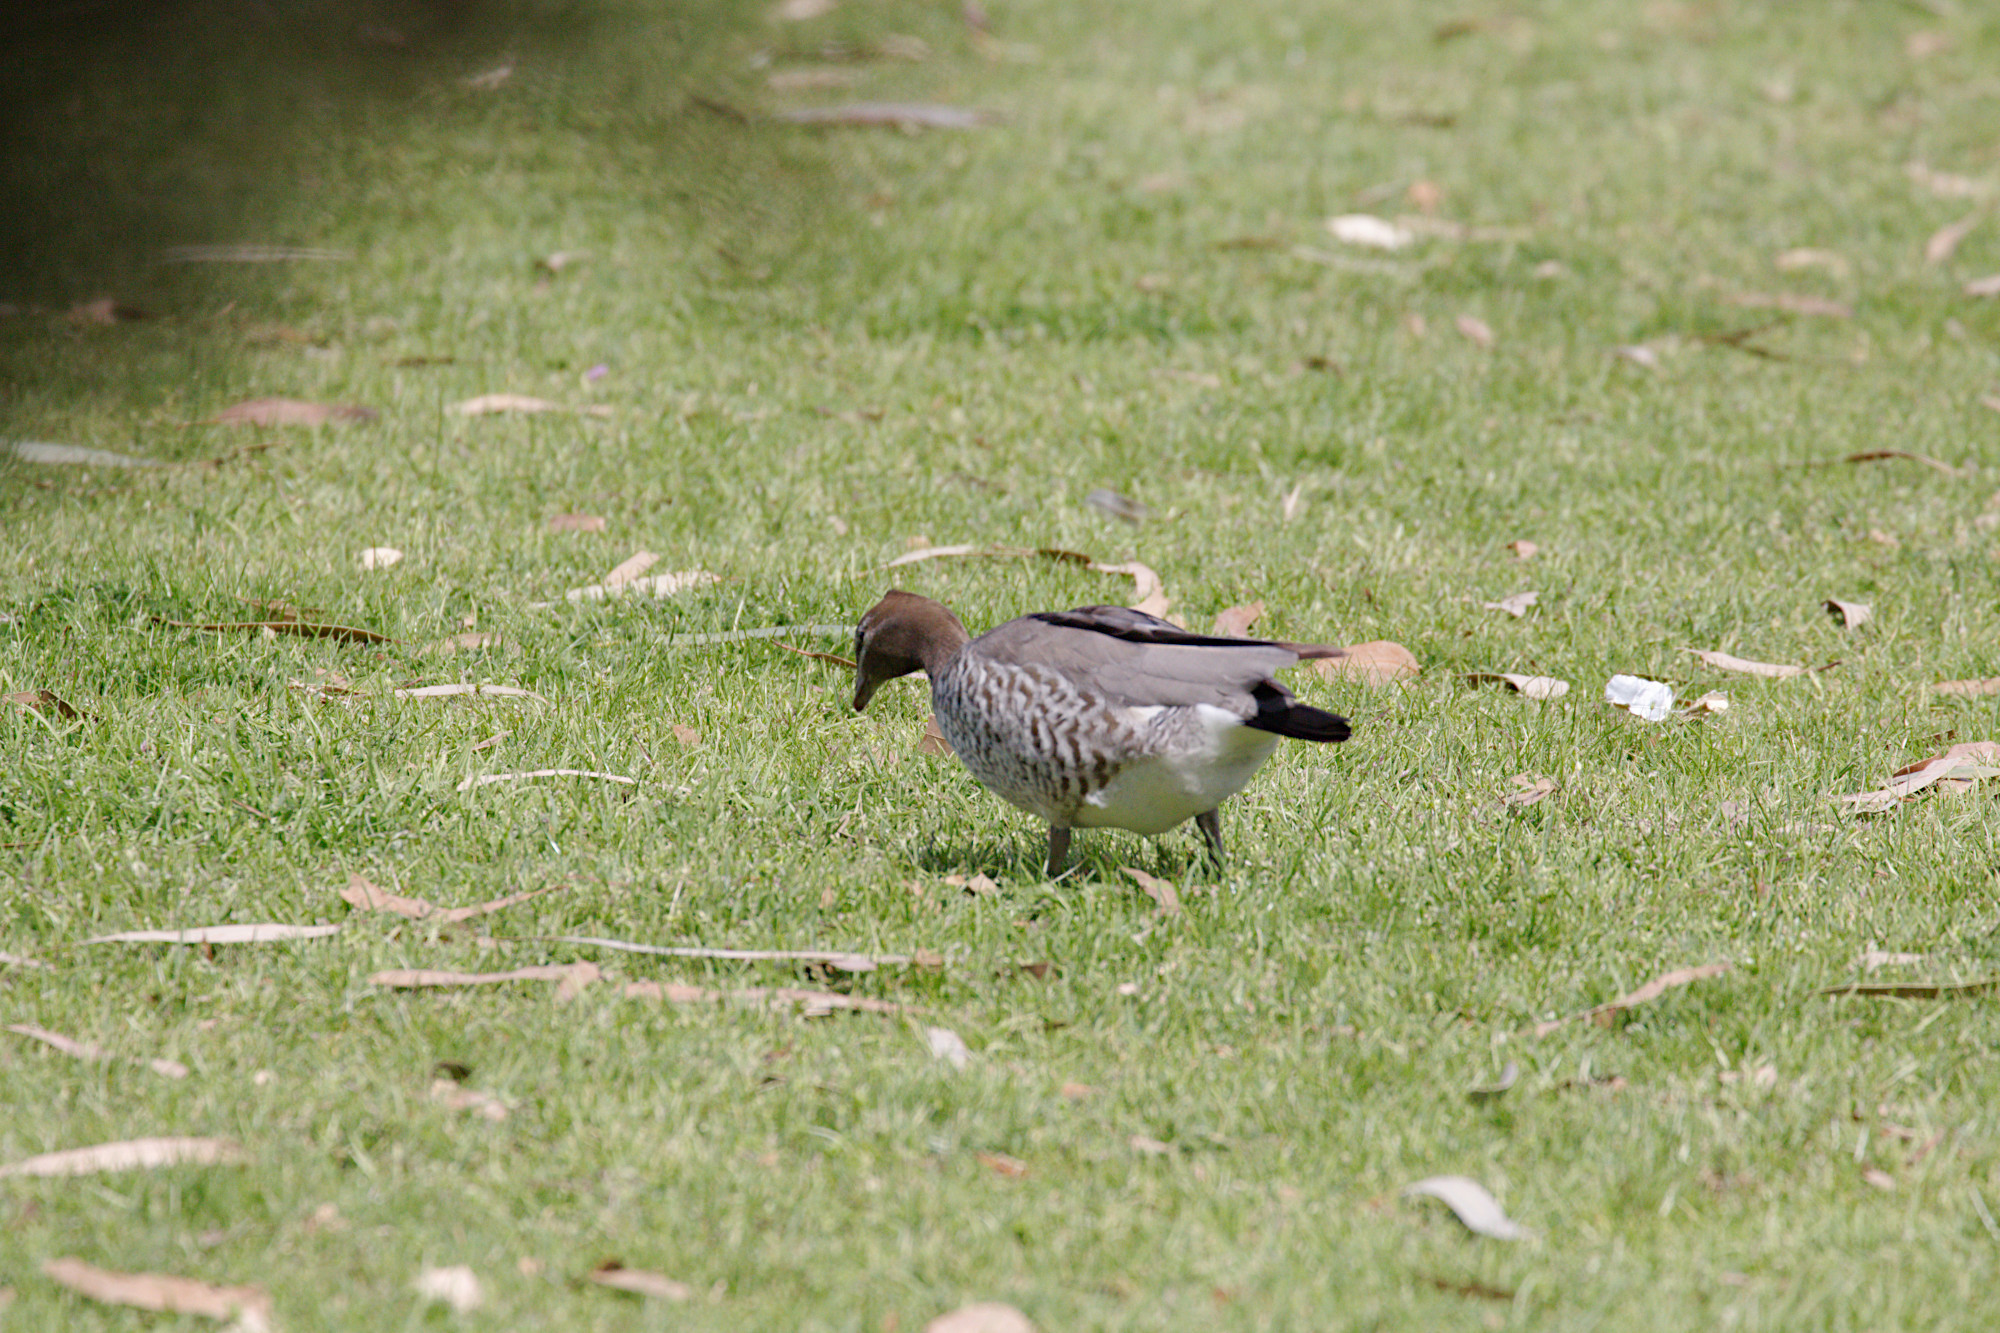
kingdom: Animalia
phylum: Chordata
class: Aves
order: Anseriformes
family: Anatidae
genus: Chenonetta
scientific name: Chenonetta jubata
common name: Maned duck
